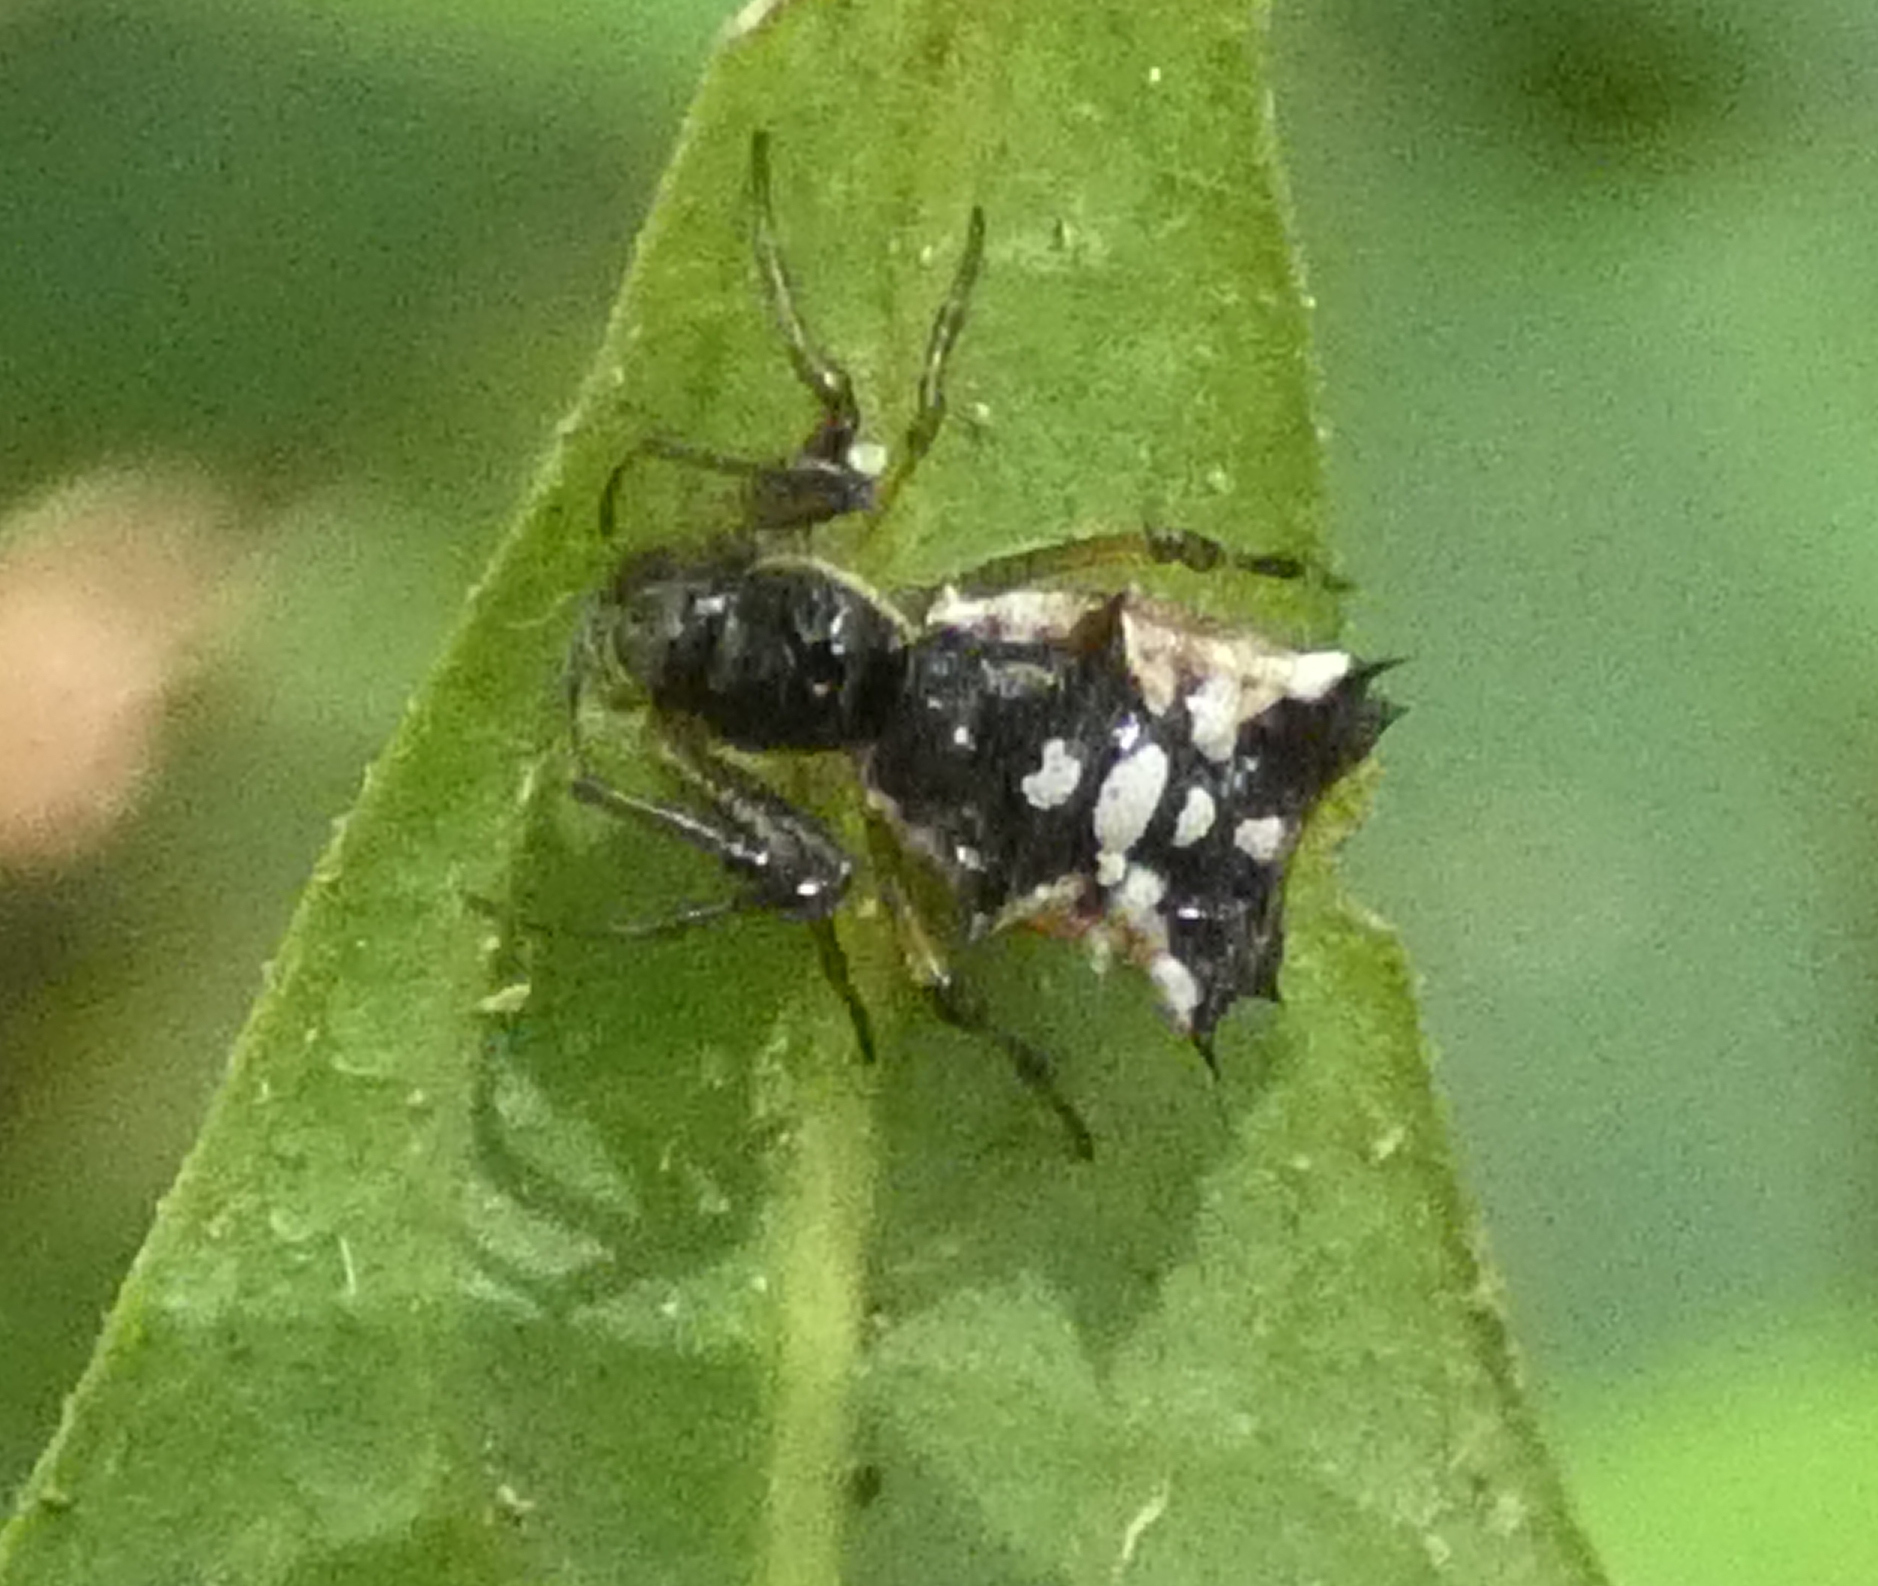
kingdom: Animalia
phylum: Arthropoda
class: Arachnida
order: Araneae
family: Araneidae
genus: Micrathena
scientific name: Micrathena picta
